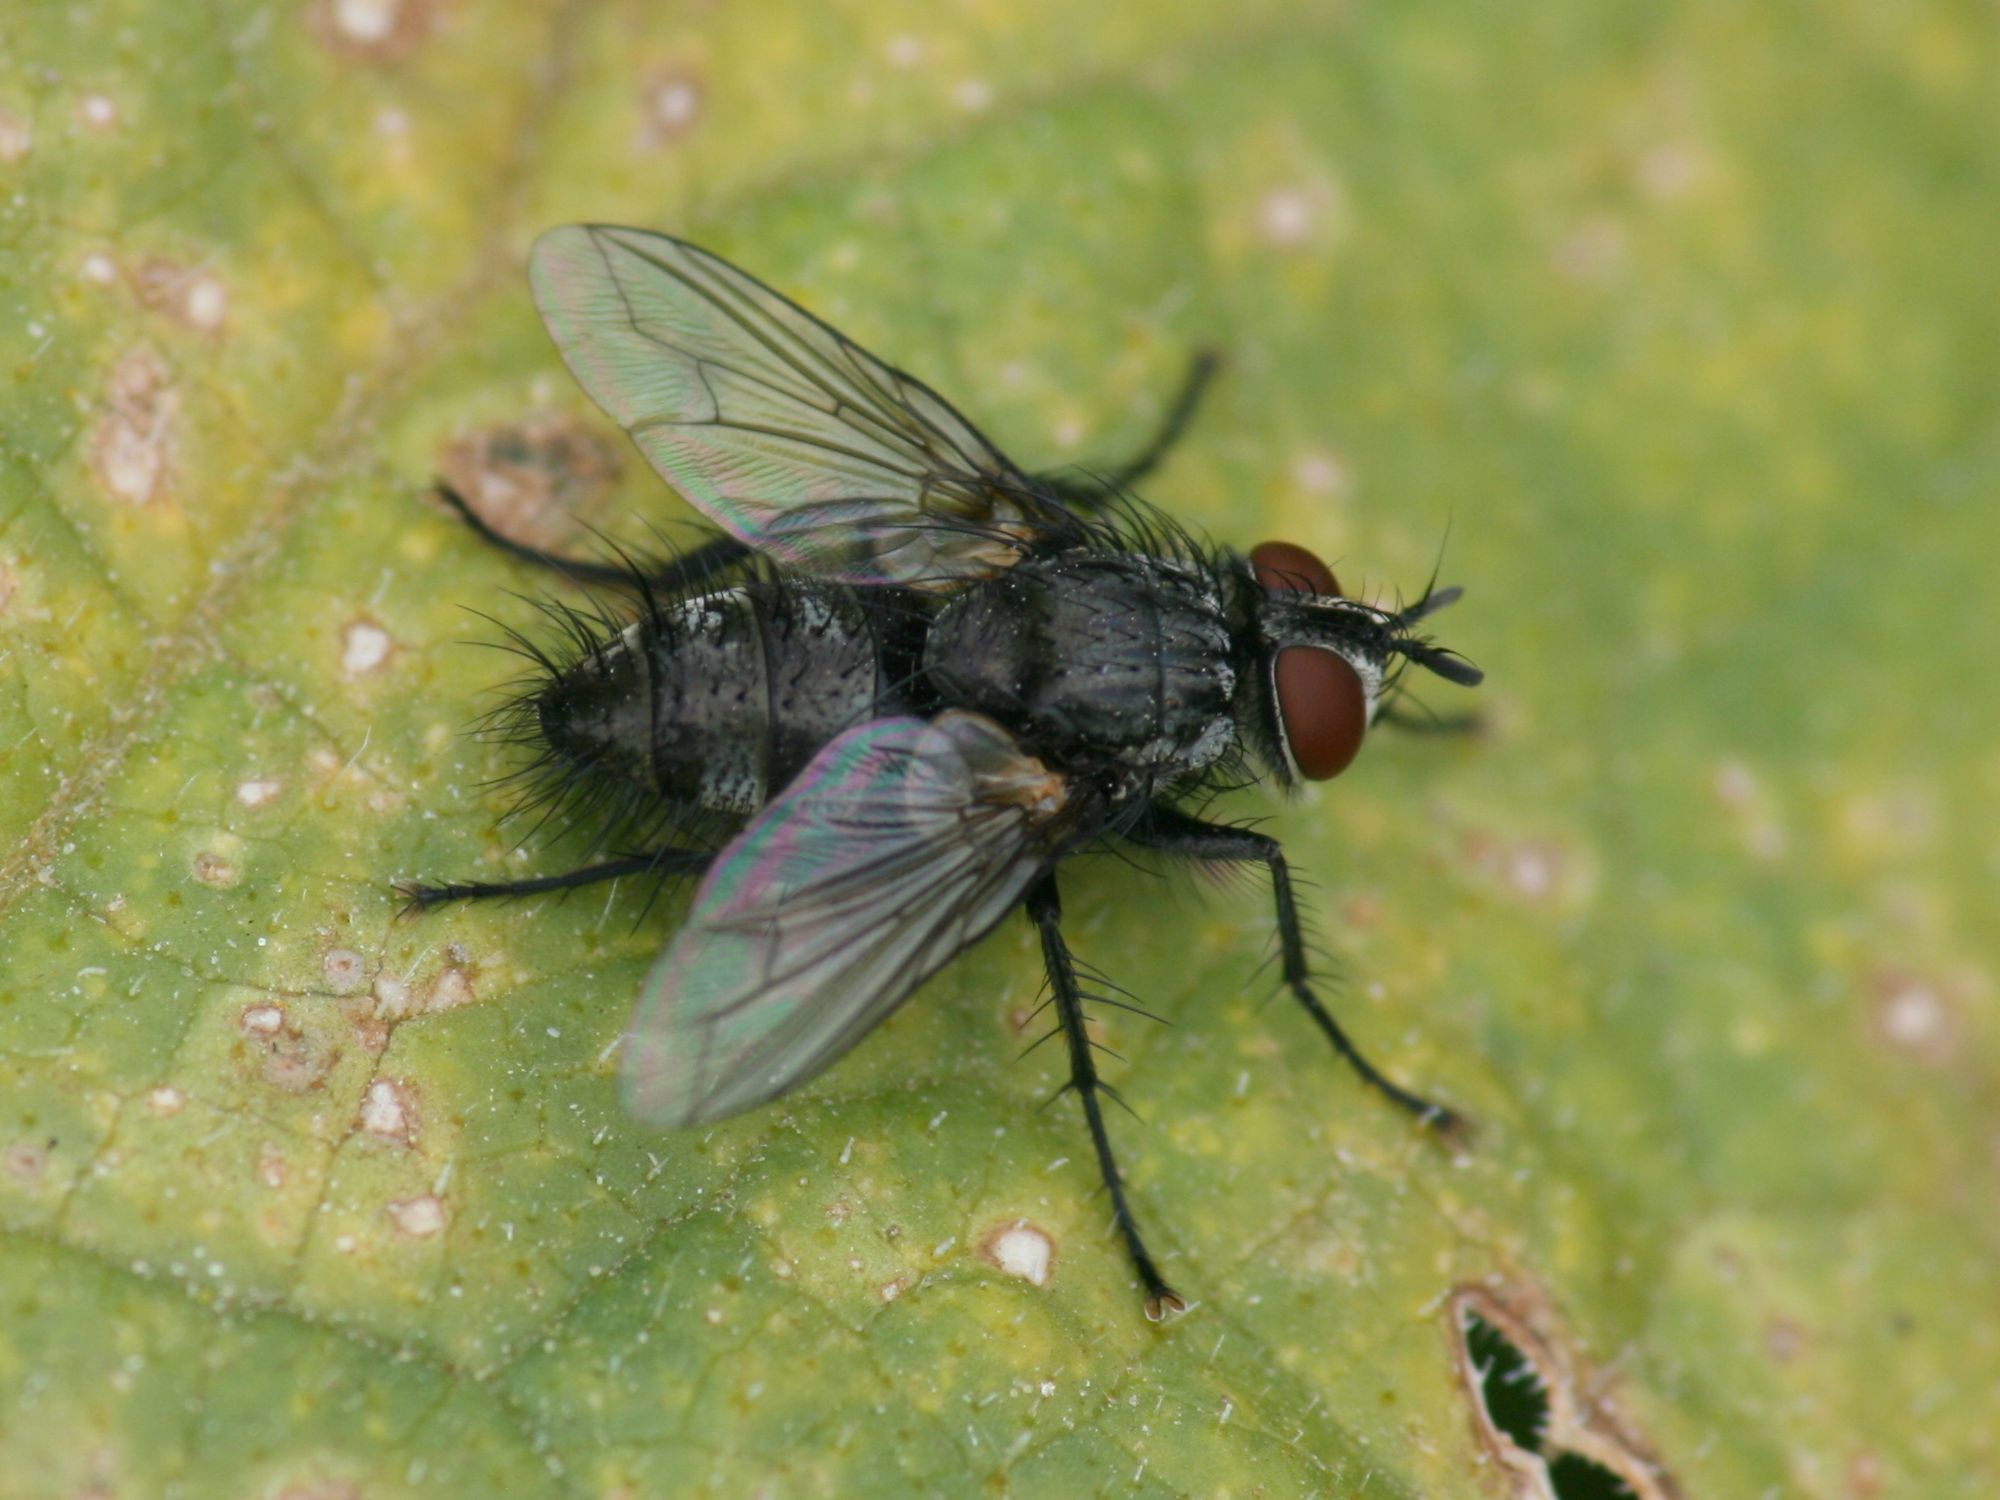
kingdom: Animalia
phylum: Arthropoda
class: Insecta
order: Diptera
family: Tachinidae
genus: Blondelia
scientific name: Blondelia nigripes
